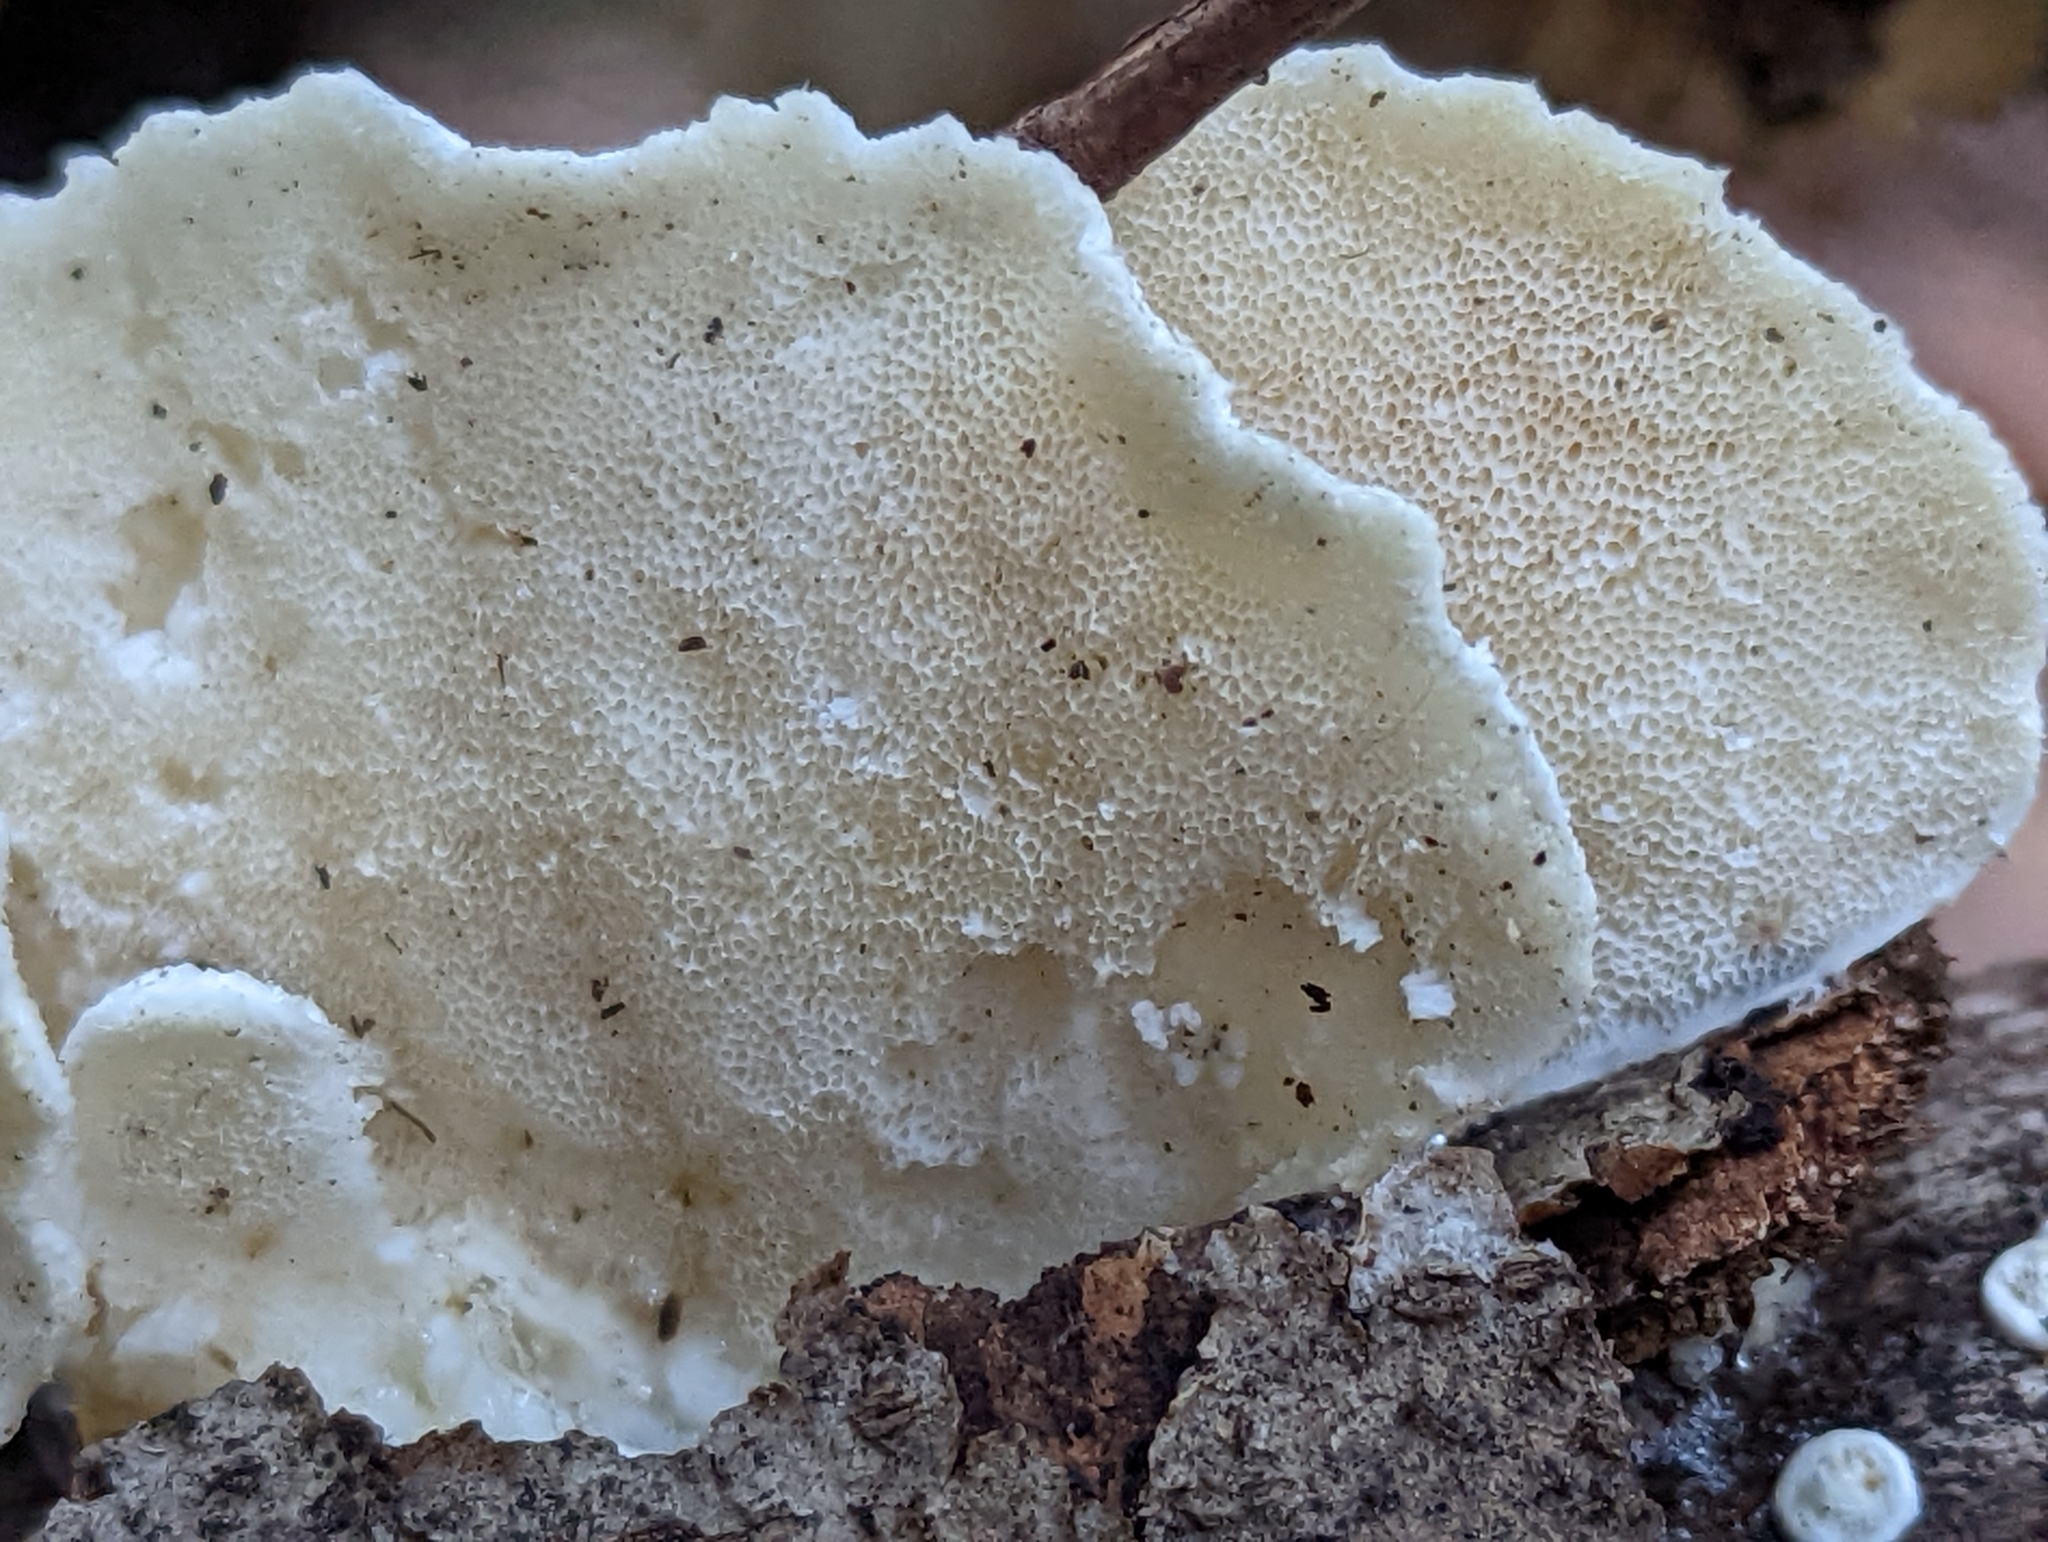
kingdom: Fungi
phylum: Basidiomycota
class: Agaricomycetes
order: Polyporales
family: Polyporaceae
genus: Trametes
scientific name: Trametes pubescens
